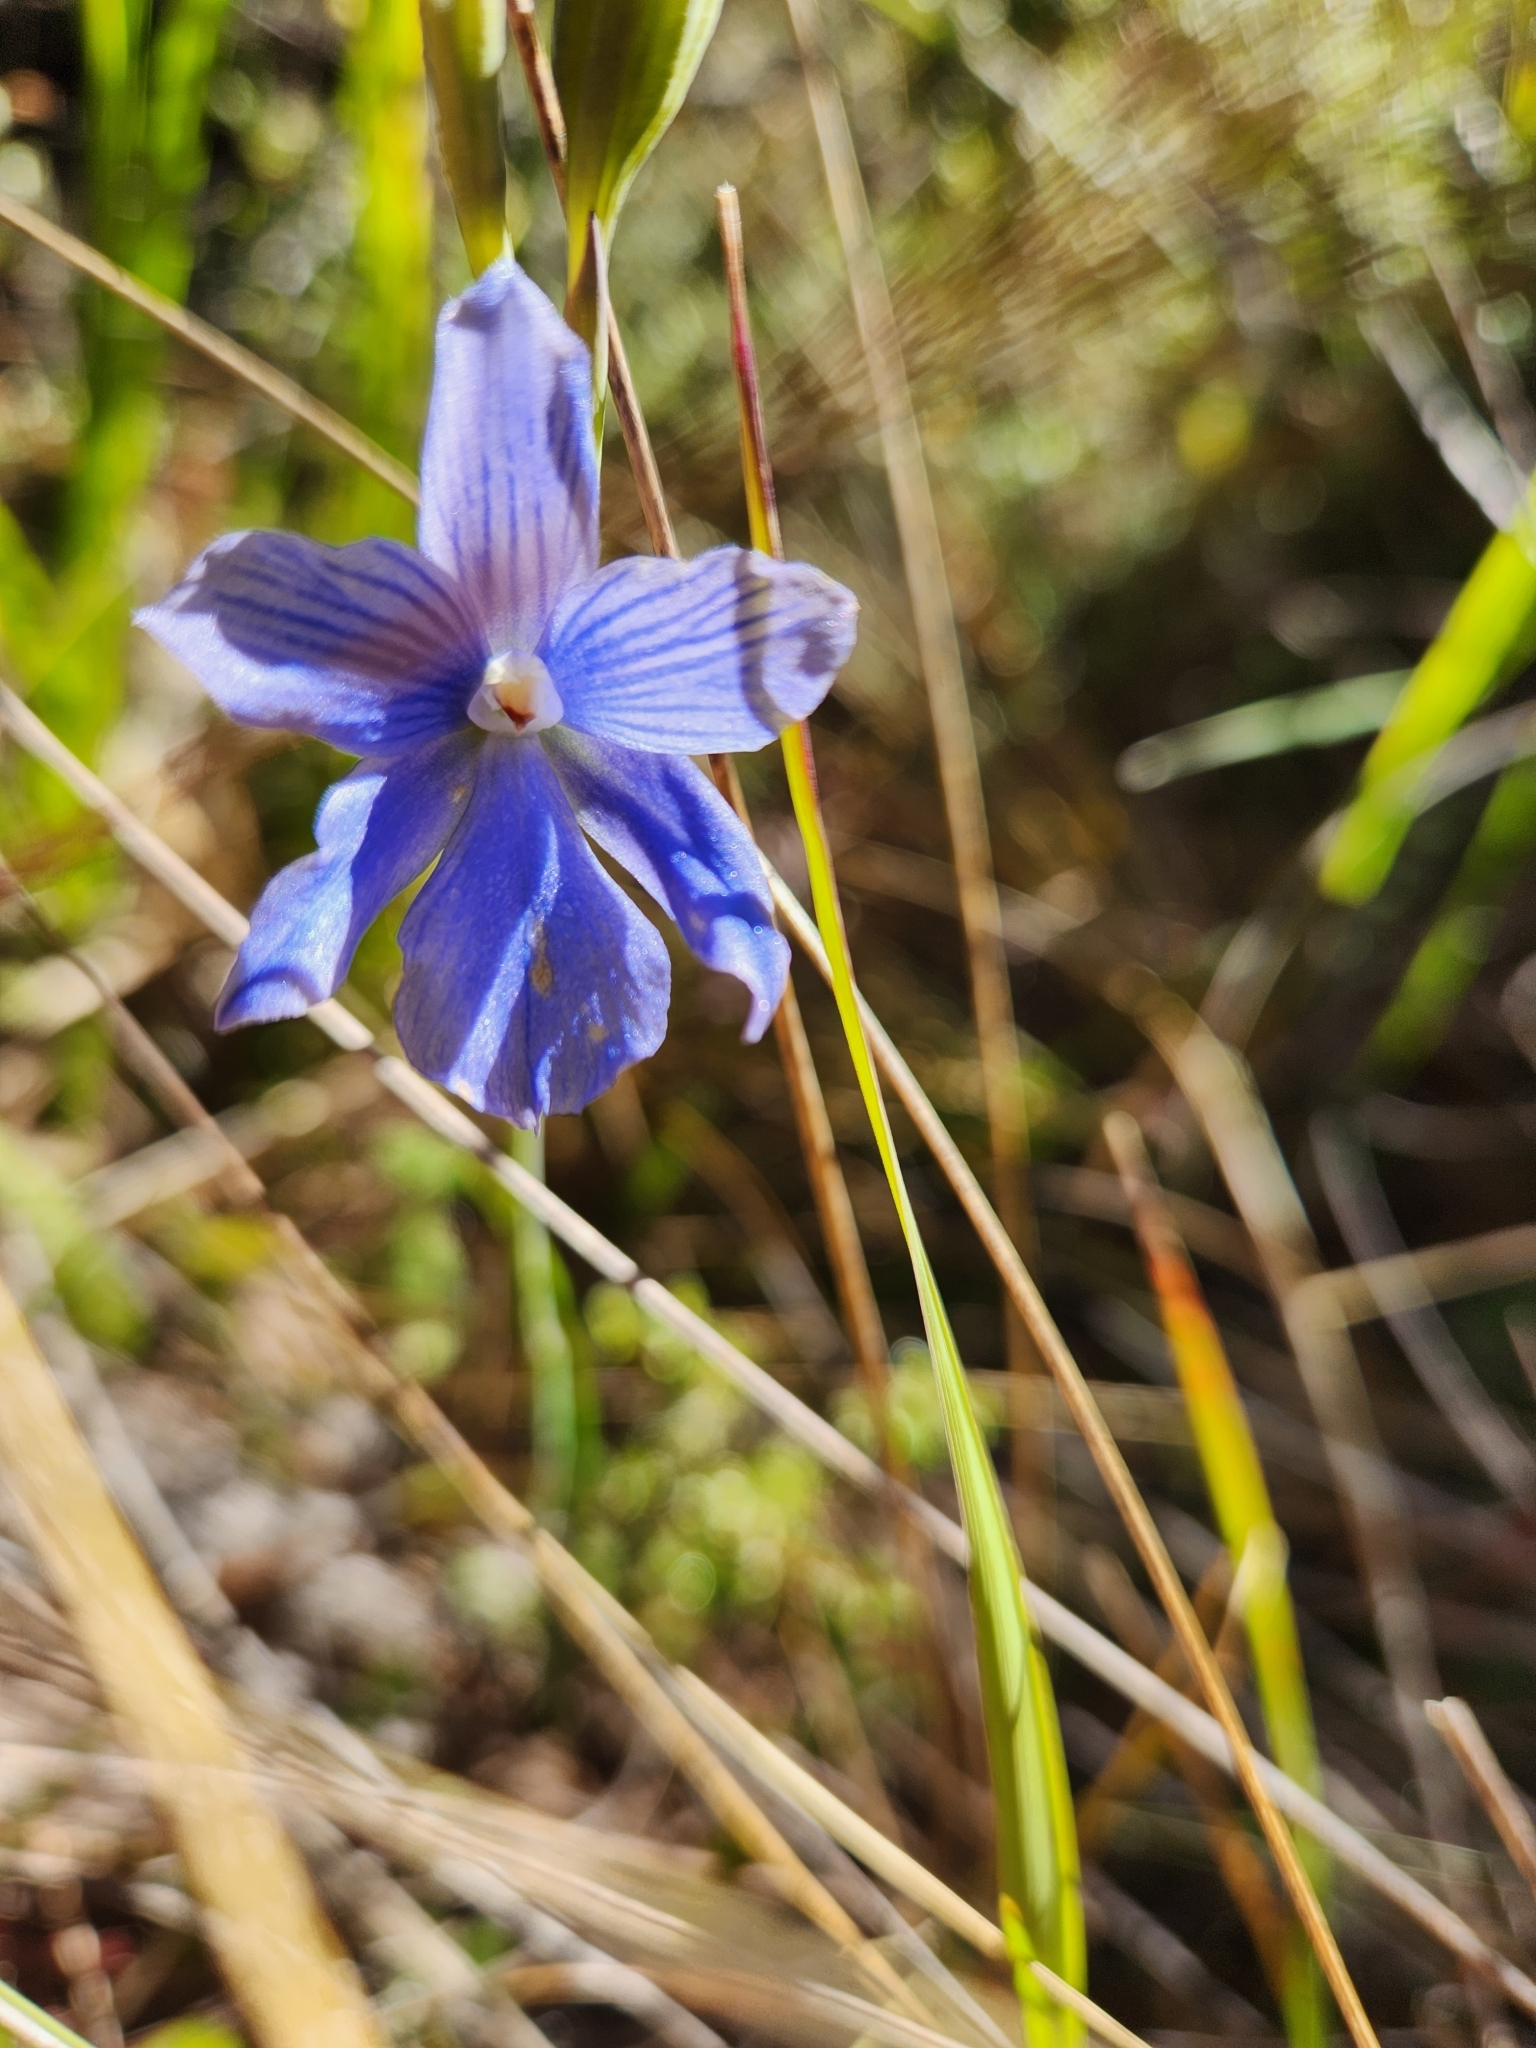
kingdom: Plantae
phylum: Tracheophyta
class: Liliopsida
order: Asparagales
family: Orchidaceae
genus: Thelymitra
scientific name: Thelymitra cyanea
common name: Blue sun-orchid
